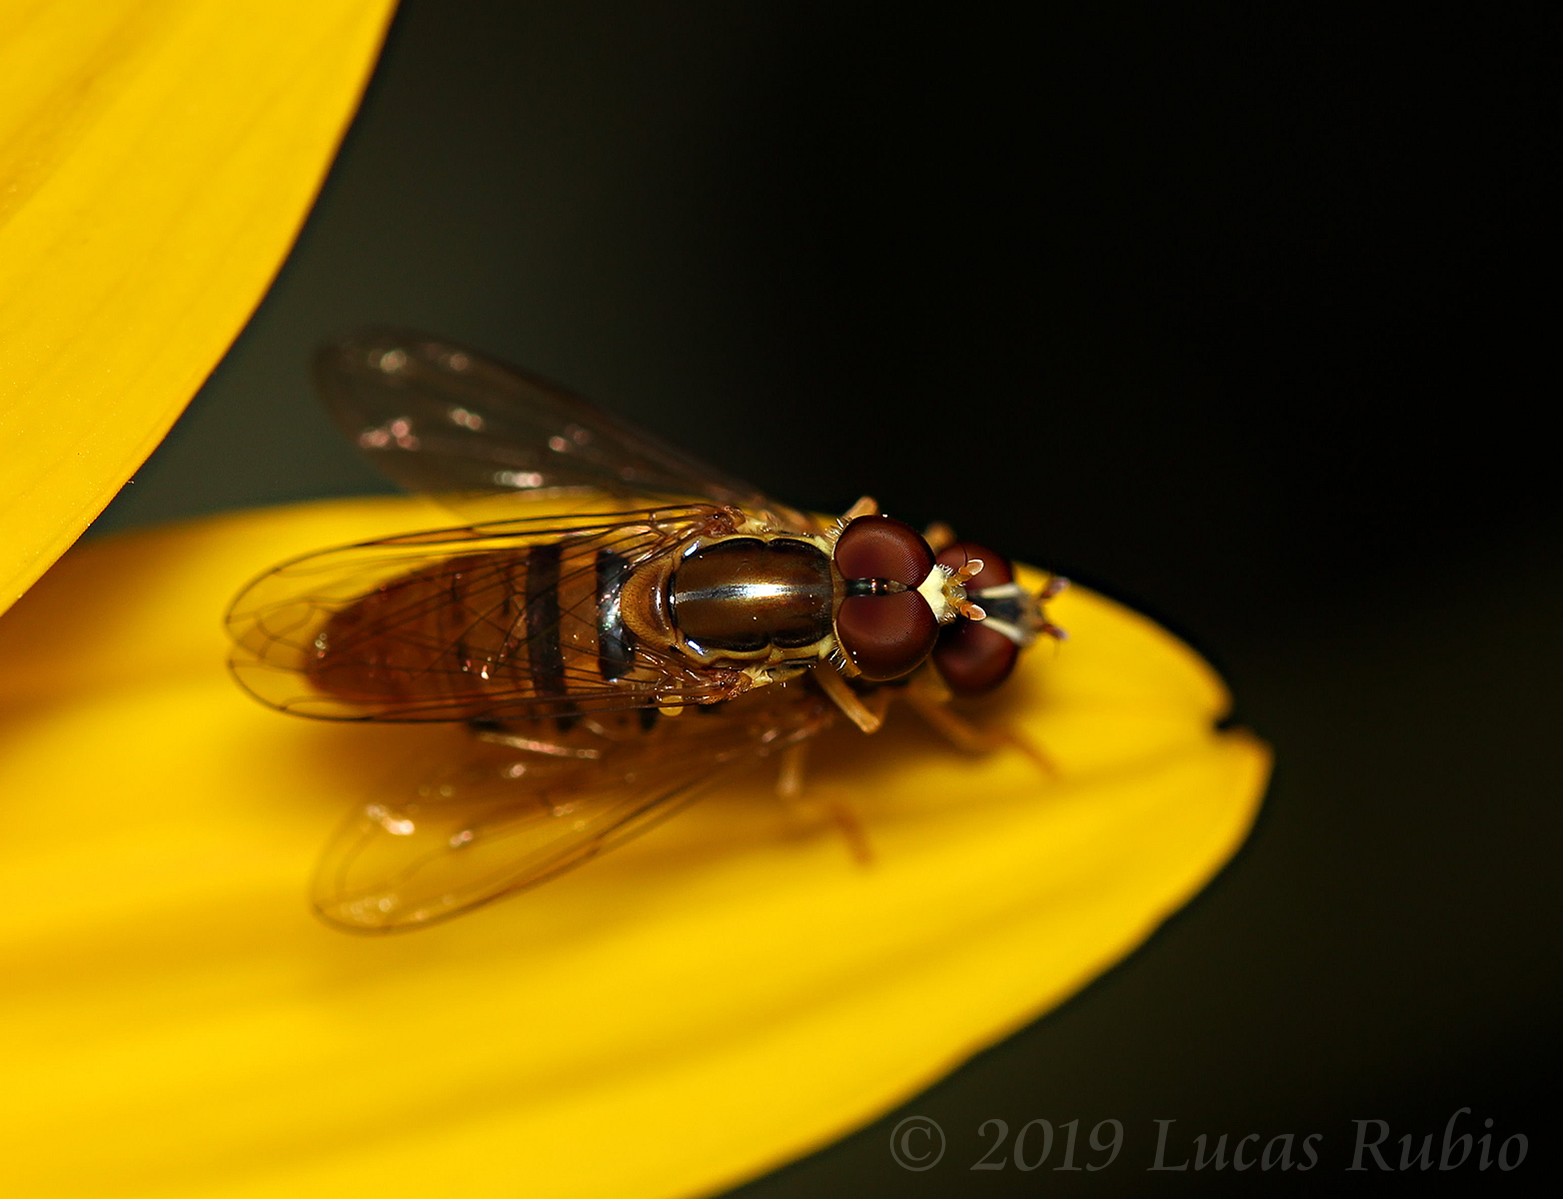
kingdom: Animalia
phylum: Arthropoda
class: Insecta
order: Diptera
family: Syrphidae
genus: Toxomerus
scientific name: Toxomerus politus
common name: Maize calligrapher
